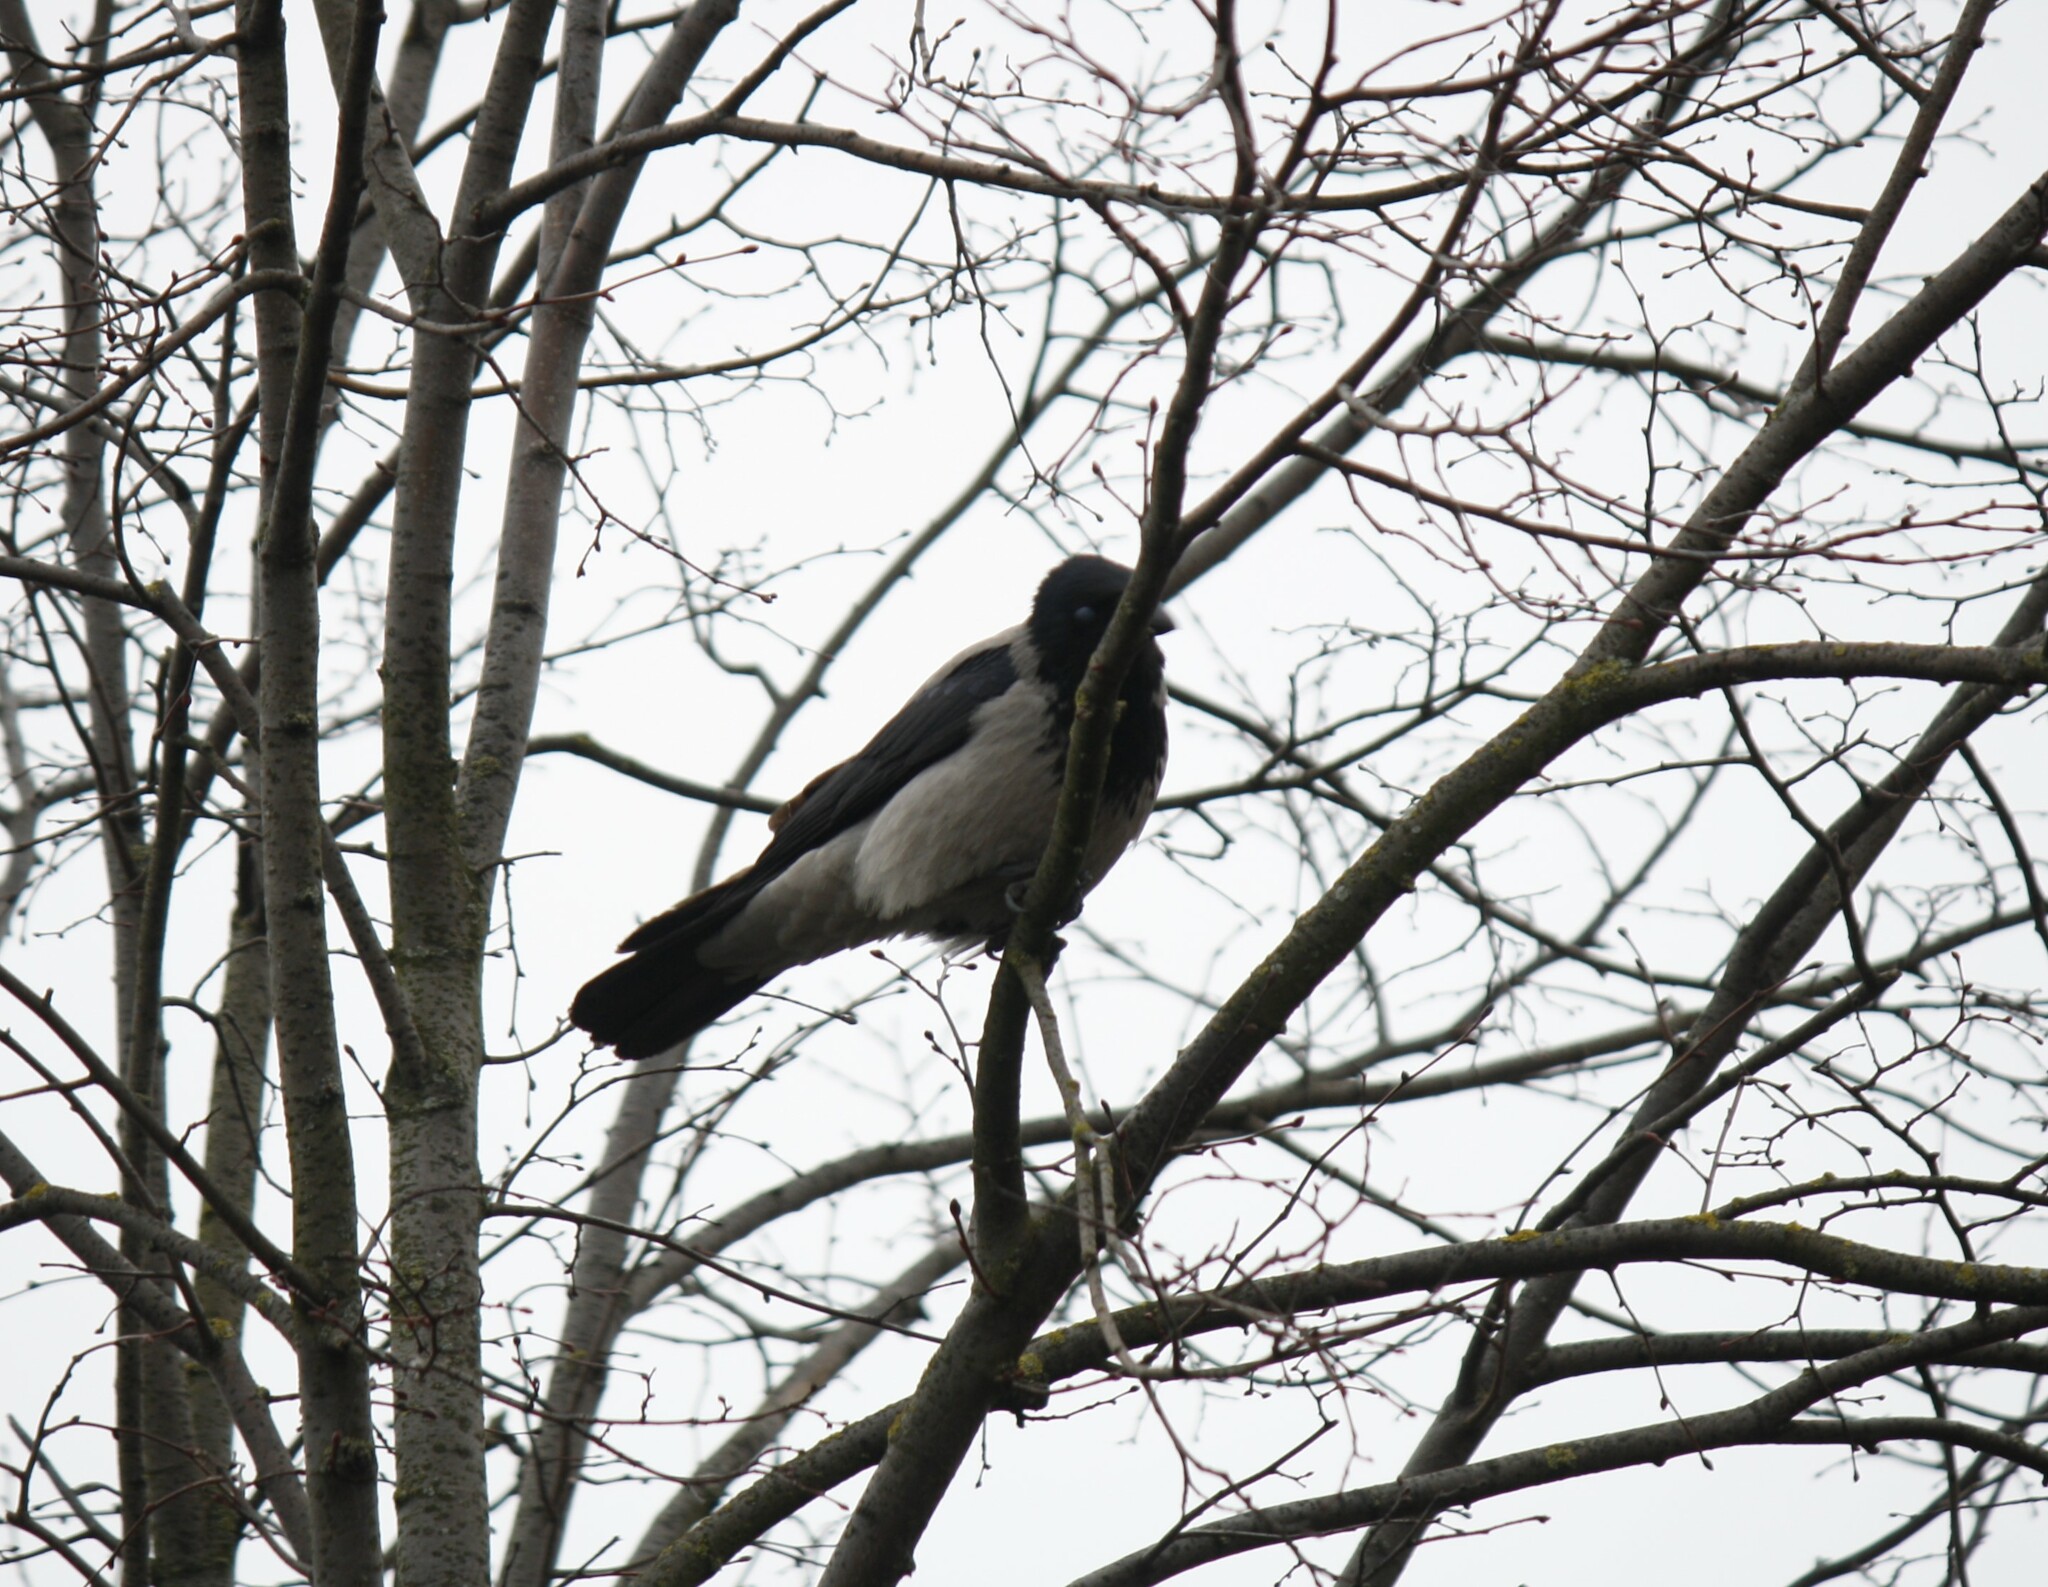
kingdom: Animalia
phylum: Chordata
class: Aves
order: Passeriformes
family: Corvidae
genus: Corvus
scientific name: Corvus cornix
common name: Hooded crow
